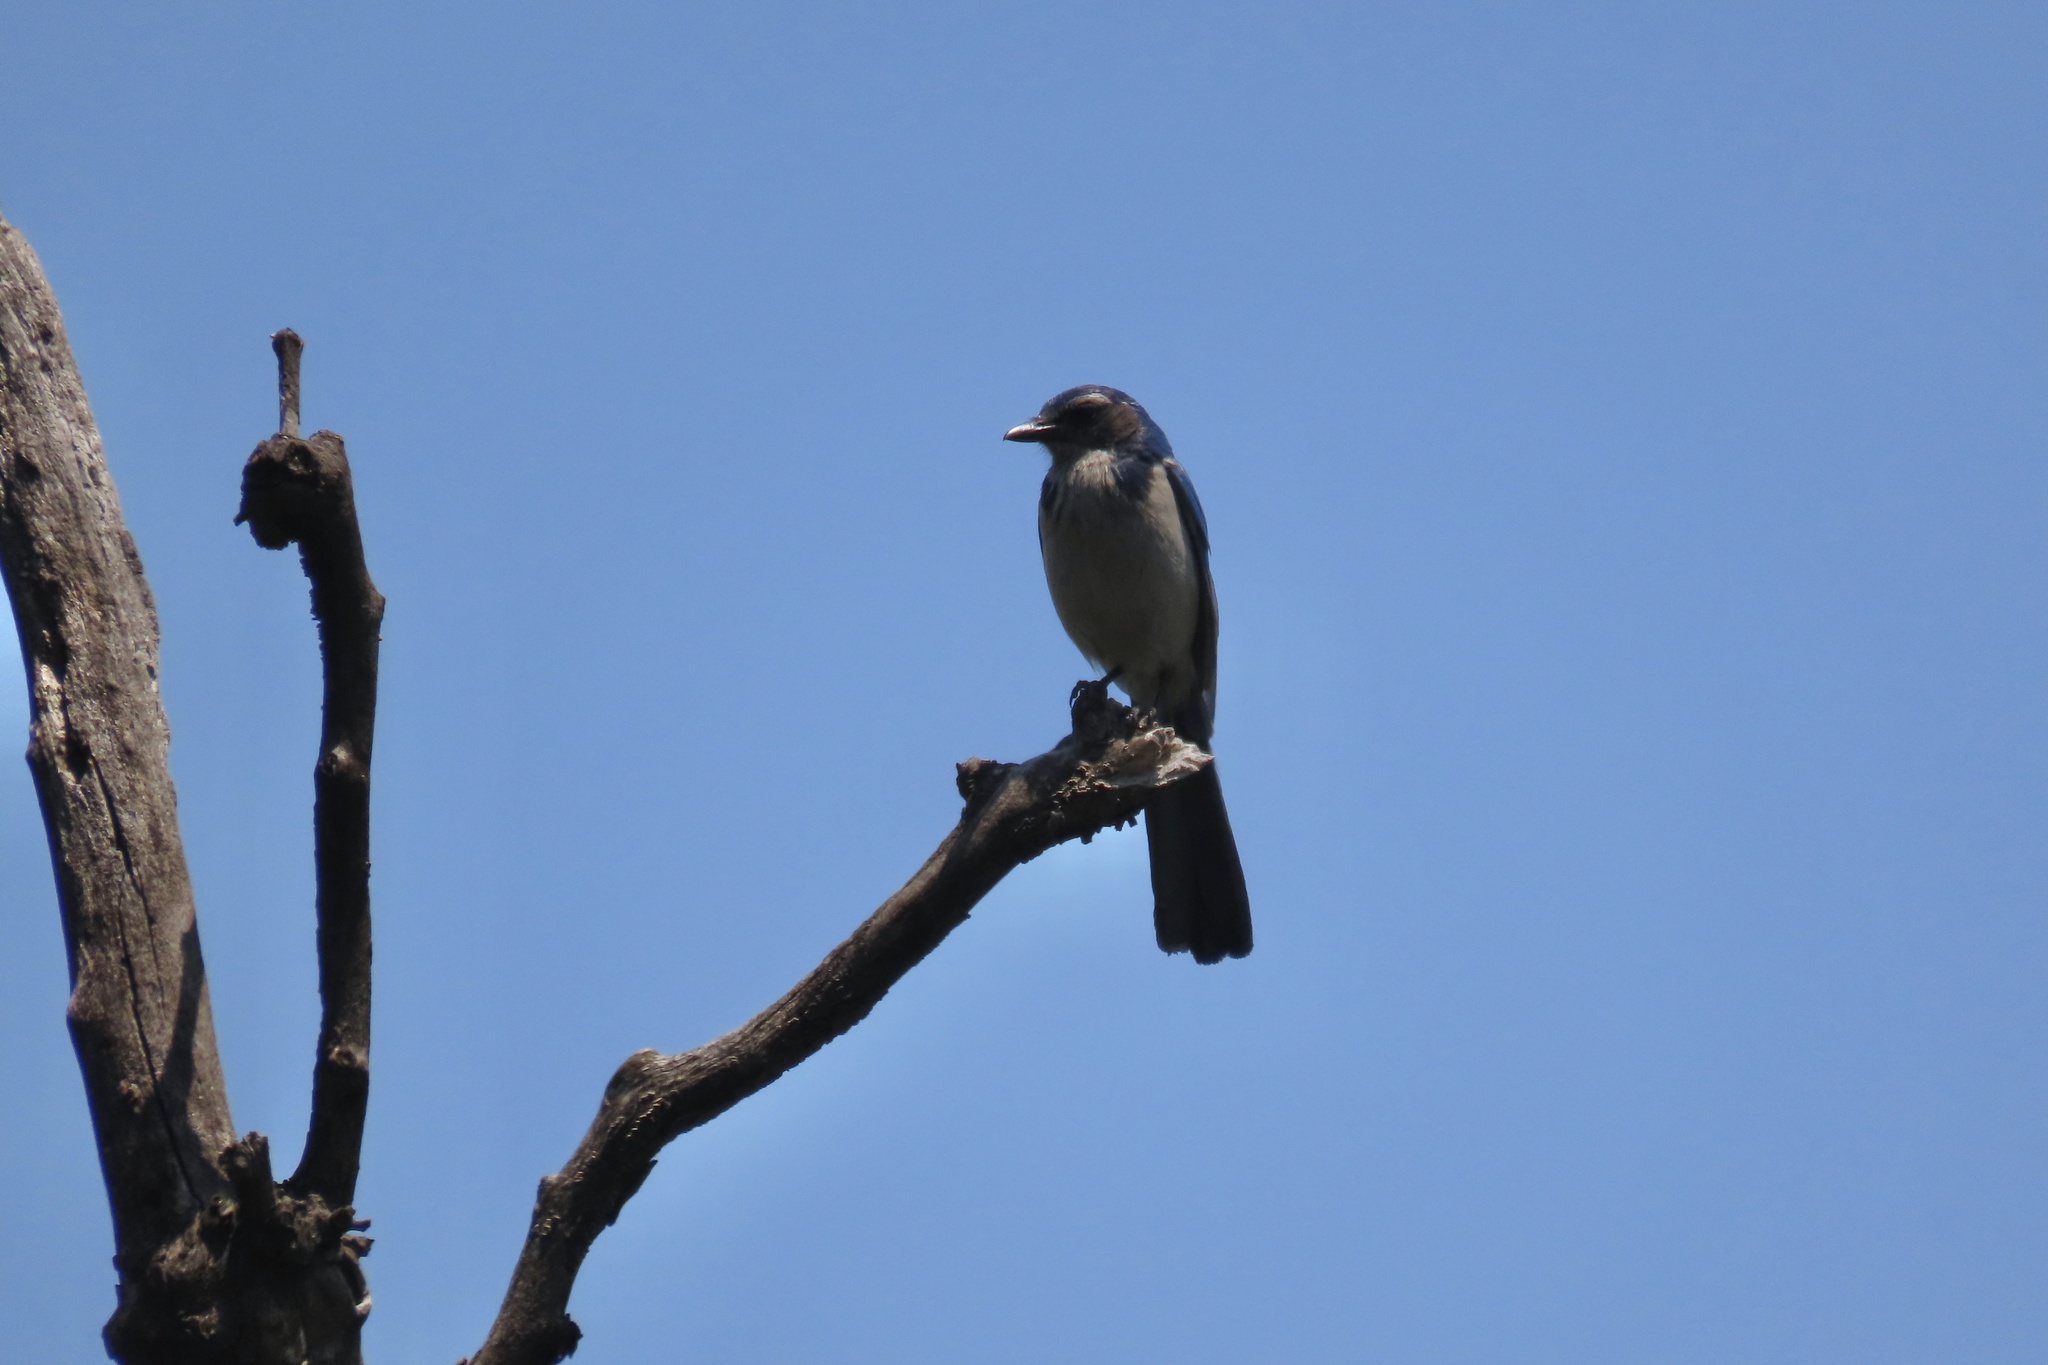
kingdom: Animalia
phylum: Chordata
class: Aves
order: Passeriformes
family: Corvidae
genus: Aphelocoma
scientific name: Aphelocoma californica
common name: California scrub-jay
